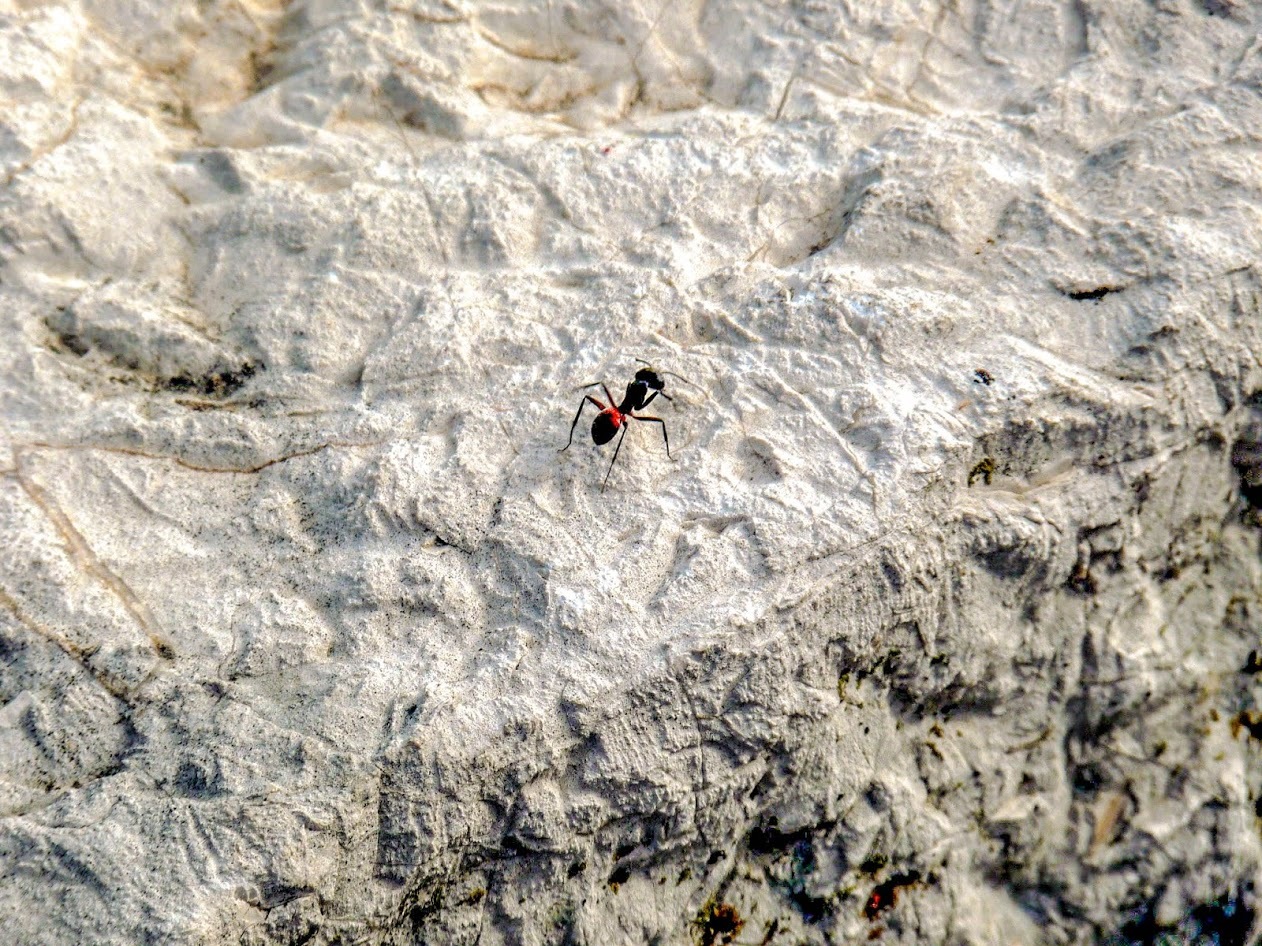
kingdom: Animalia
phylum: Arthropoda
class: Insecta
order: Hymenoptera
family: Formicidae
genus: Camponotus
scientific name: Camponotus cruentatus
